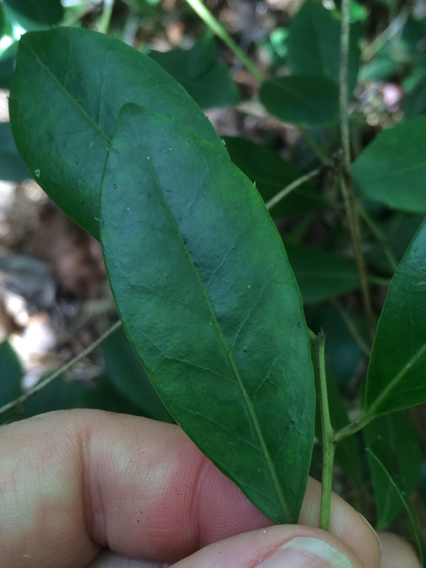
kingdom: Plantae
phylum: Tracheophyta
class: Magnoliopsida
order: Aquifoliales
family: Aquifoliaceae
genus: Ilex
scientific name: Ilex coriacea
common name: Sweet gallberry
